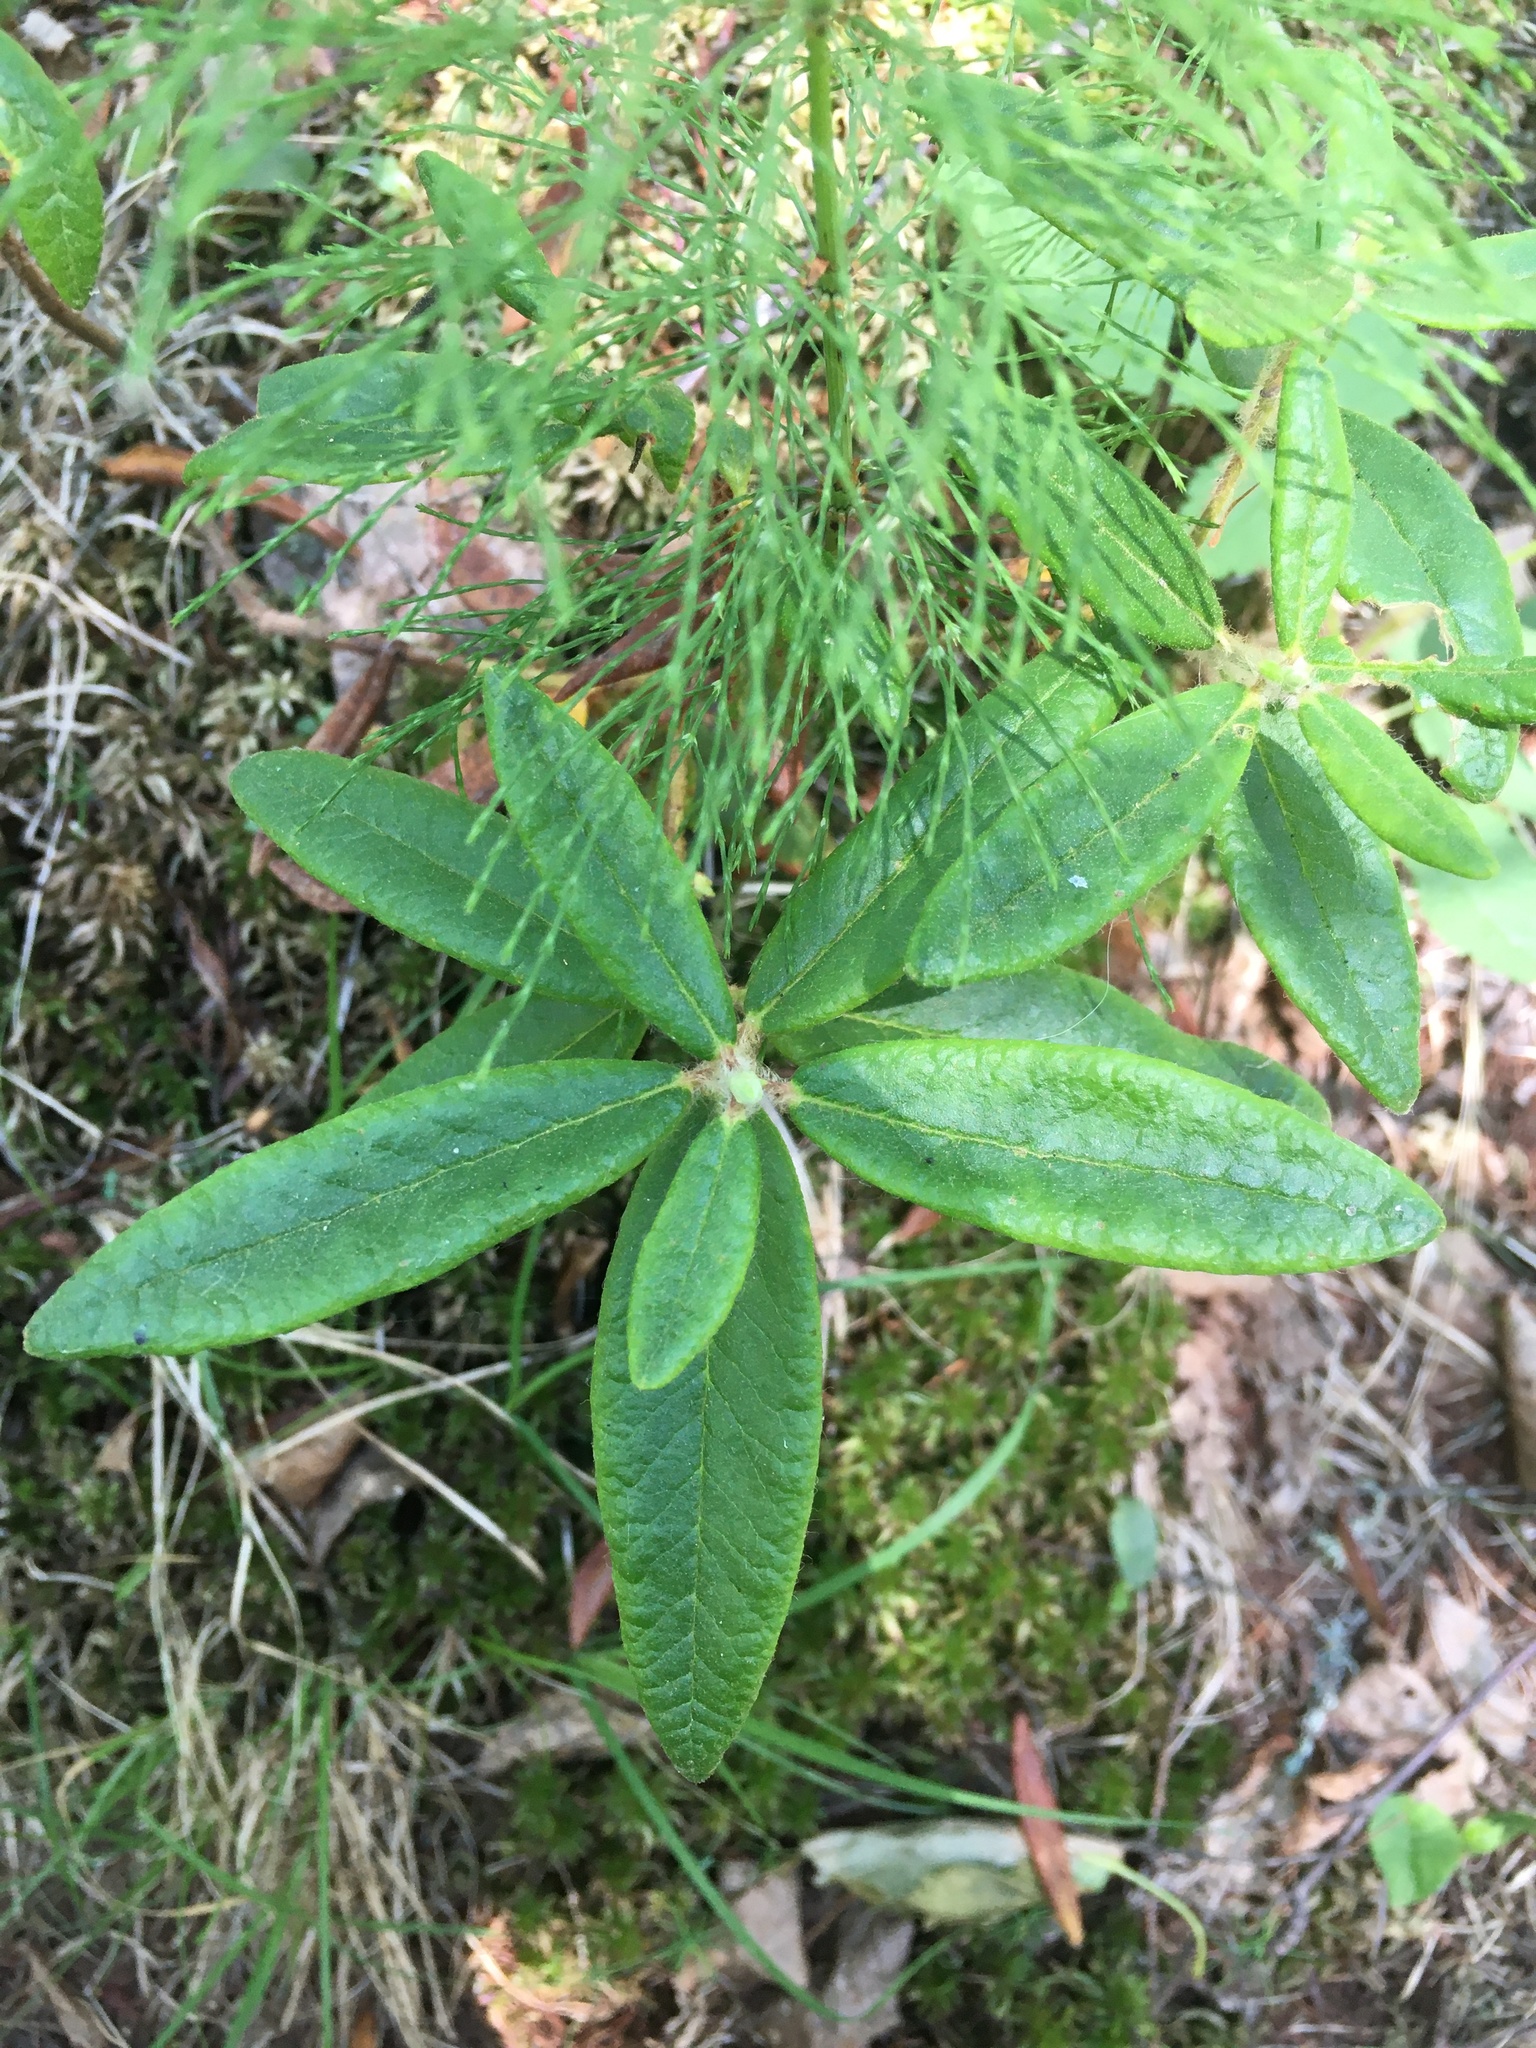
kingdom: Plantae
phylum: Tracheophyta
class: Magnoliopsida
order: Ericales
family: Ericaceae
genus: Rhododendron
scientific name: Rhododendron groenlandicum
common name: Bog labrador tea
